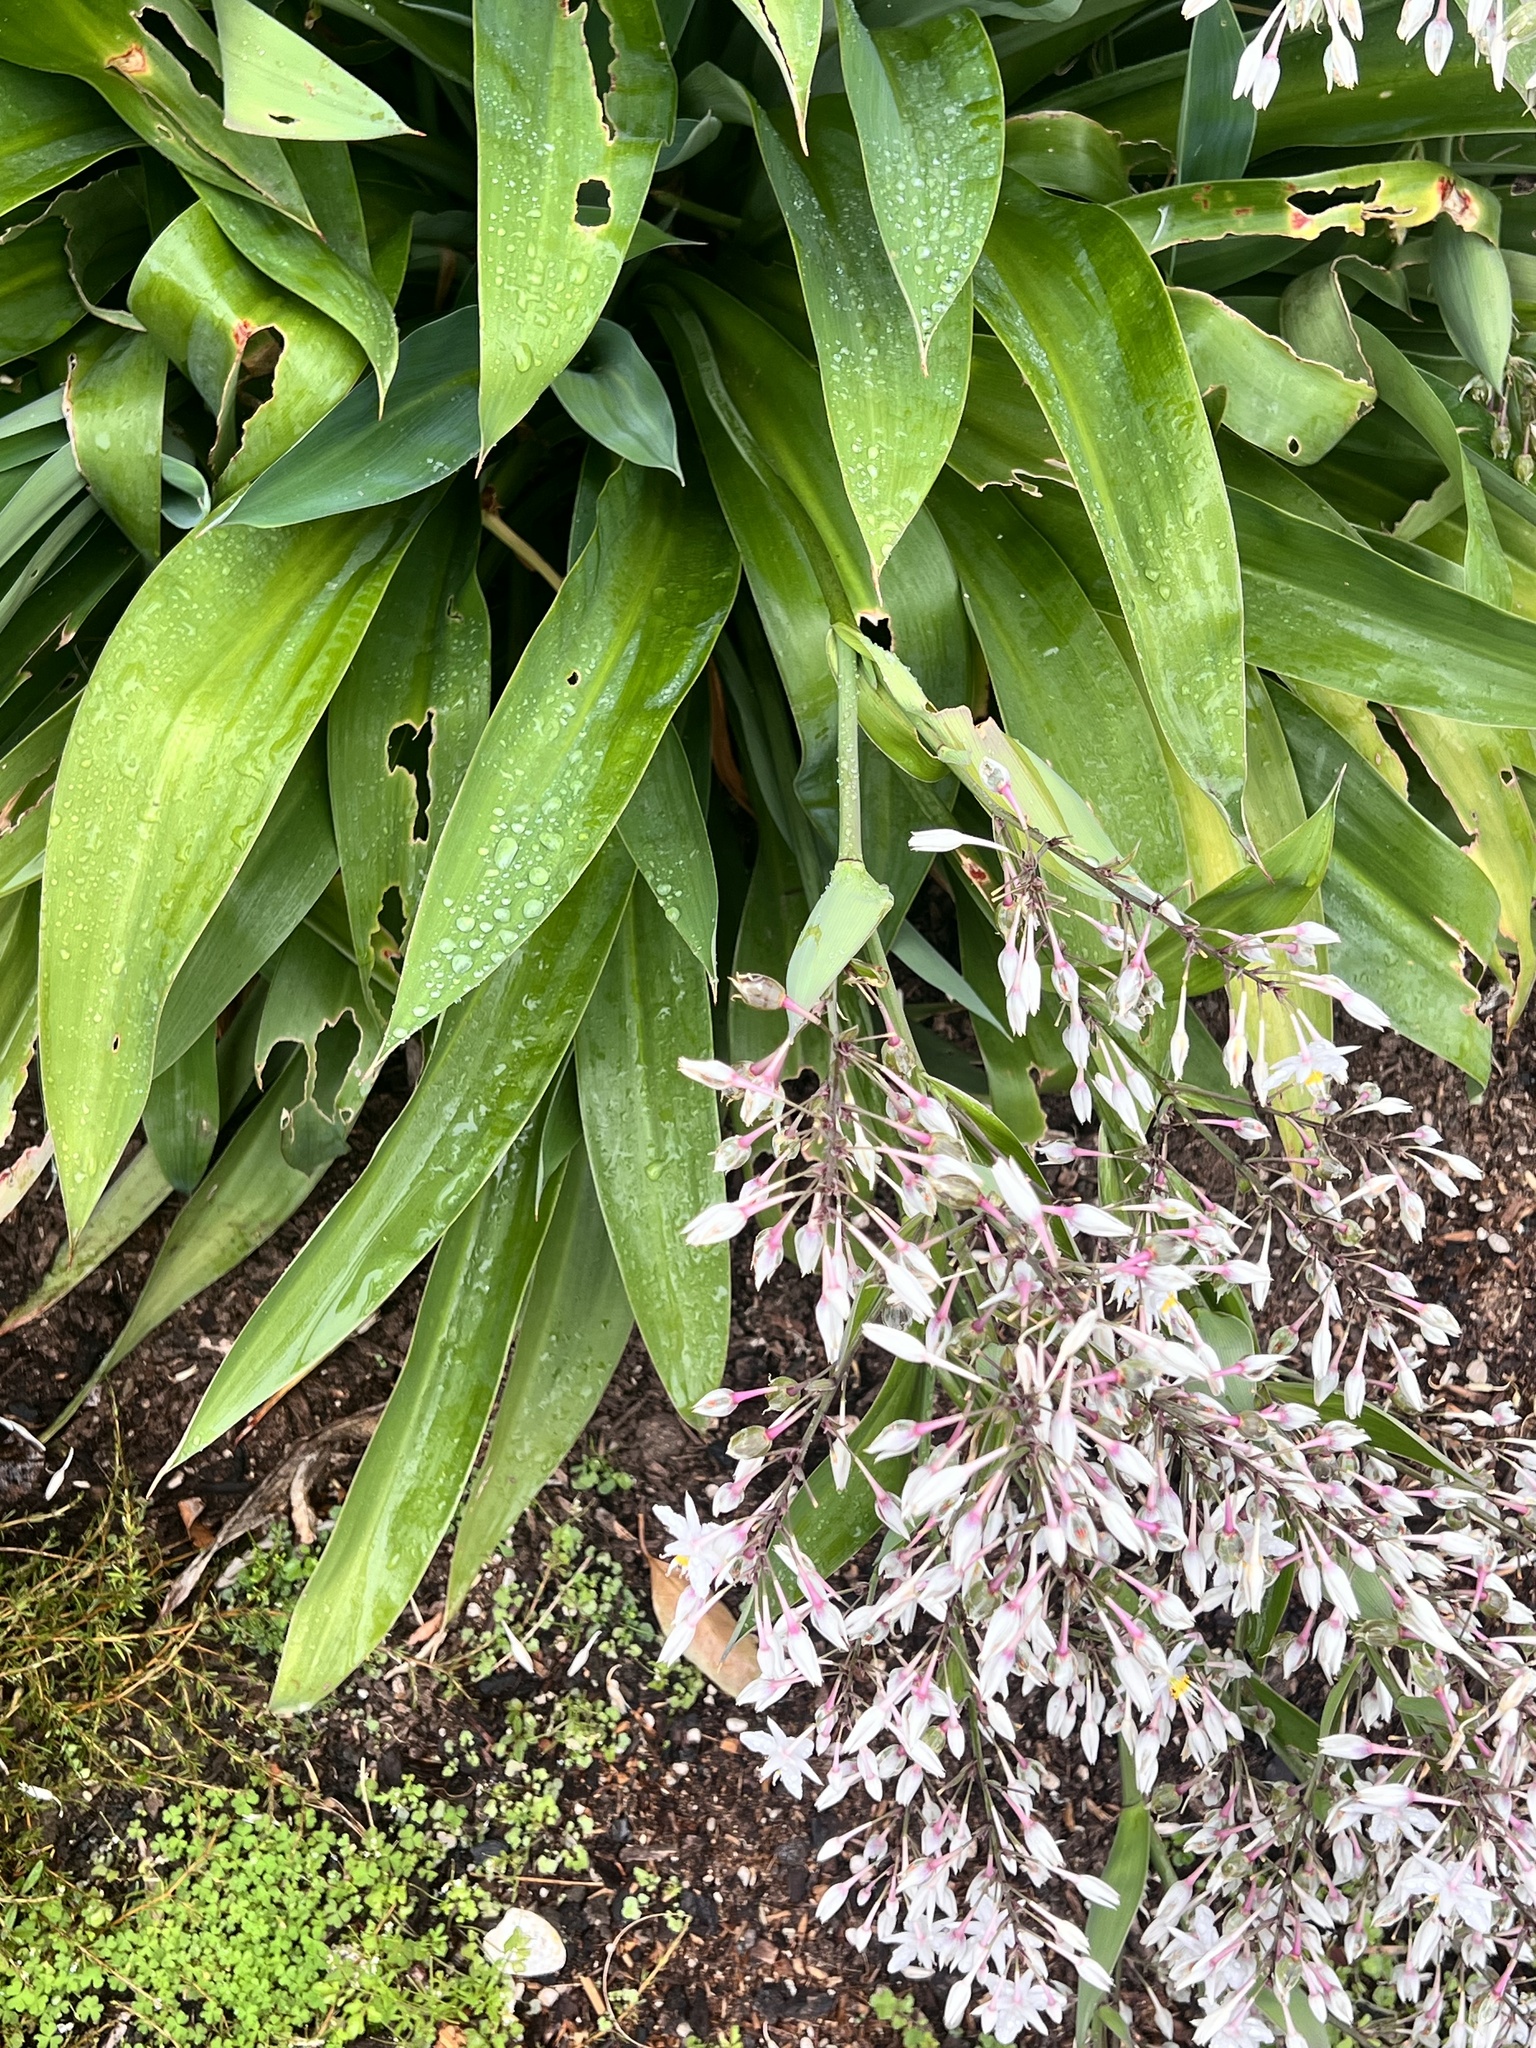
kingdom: Plantae
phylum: Tracheophyta
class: Liliopsida
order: Asparagales
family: Asparagaceae
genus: Arthropodium
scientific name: Arthropodium cirratum
